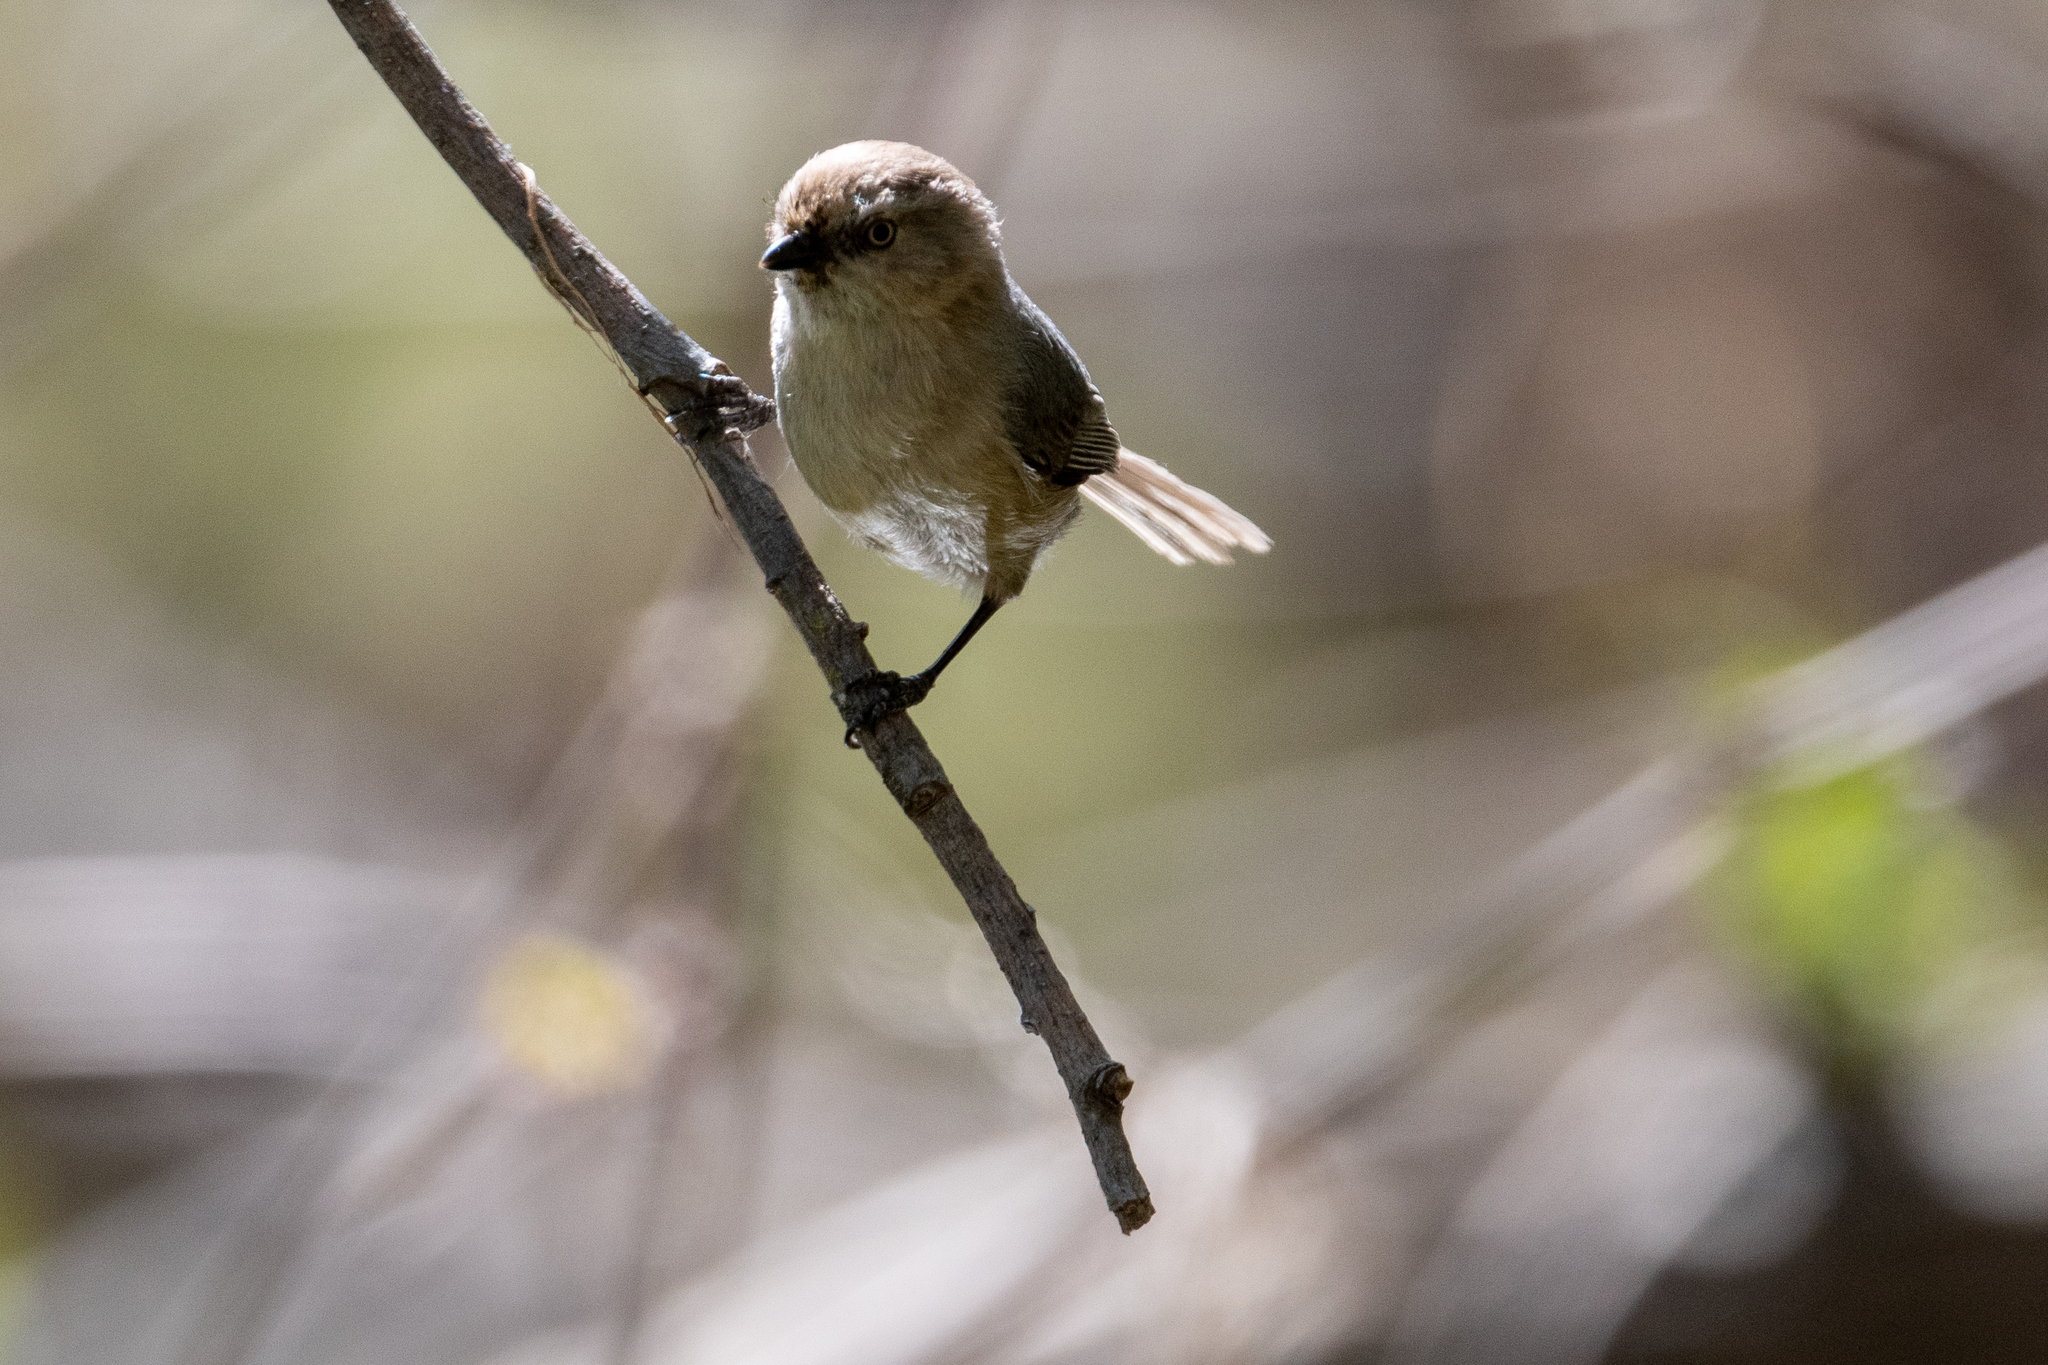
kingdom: Animalia
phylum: Chordata
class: Aves
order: Passeriformes
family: Aegithalidae
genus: Psaltriparus
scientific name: Psaltriparus minimus
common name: American bushtit
